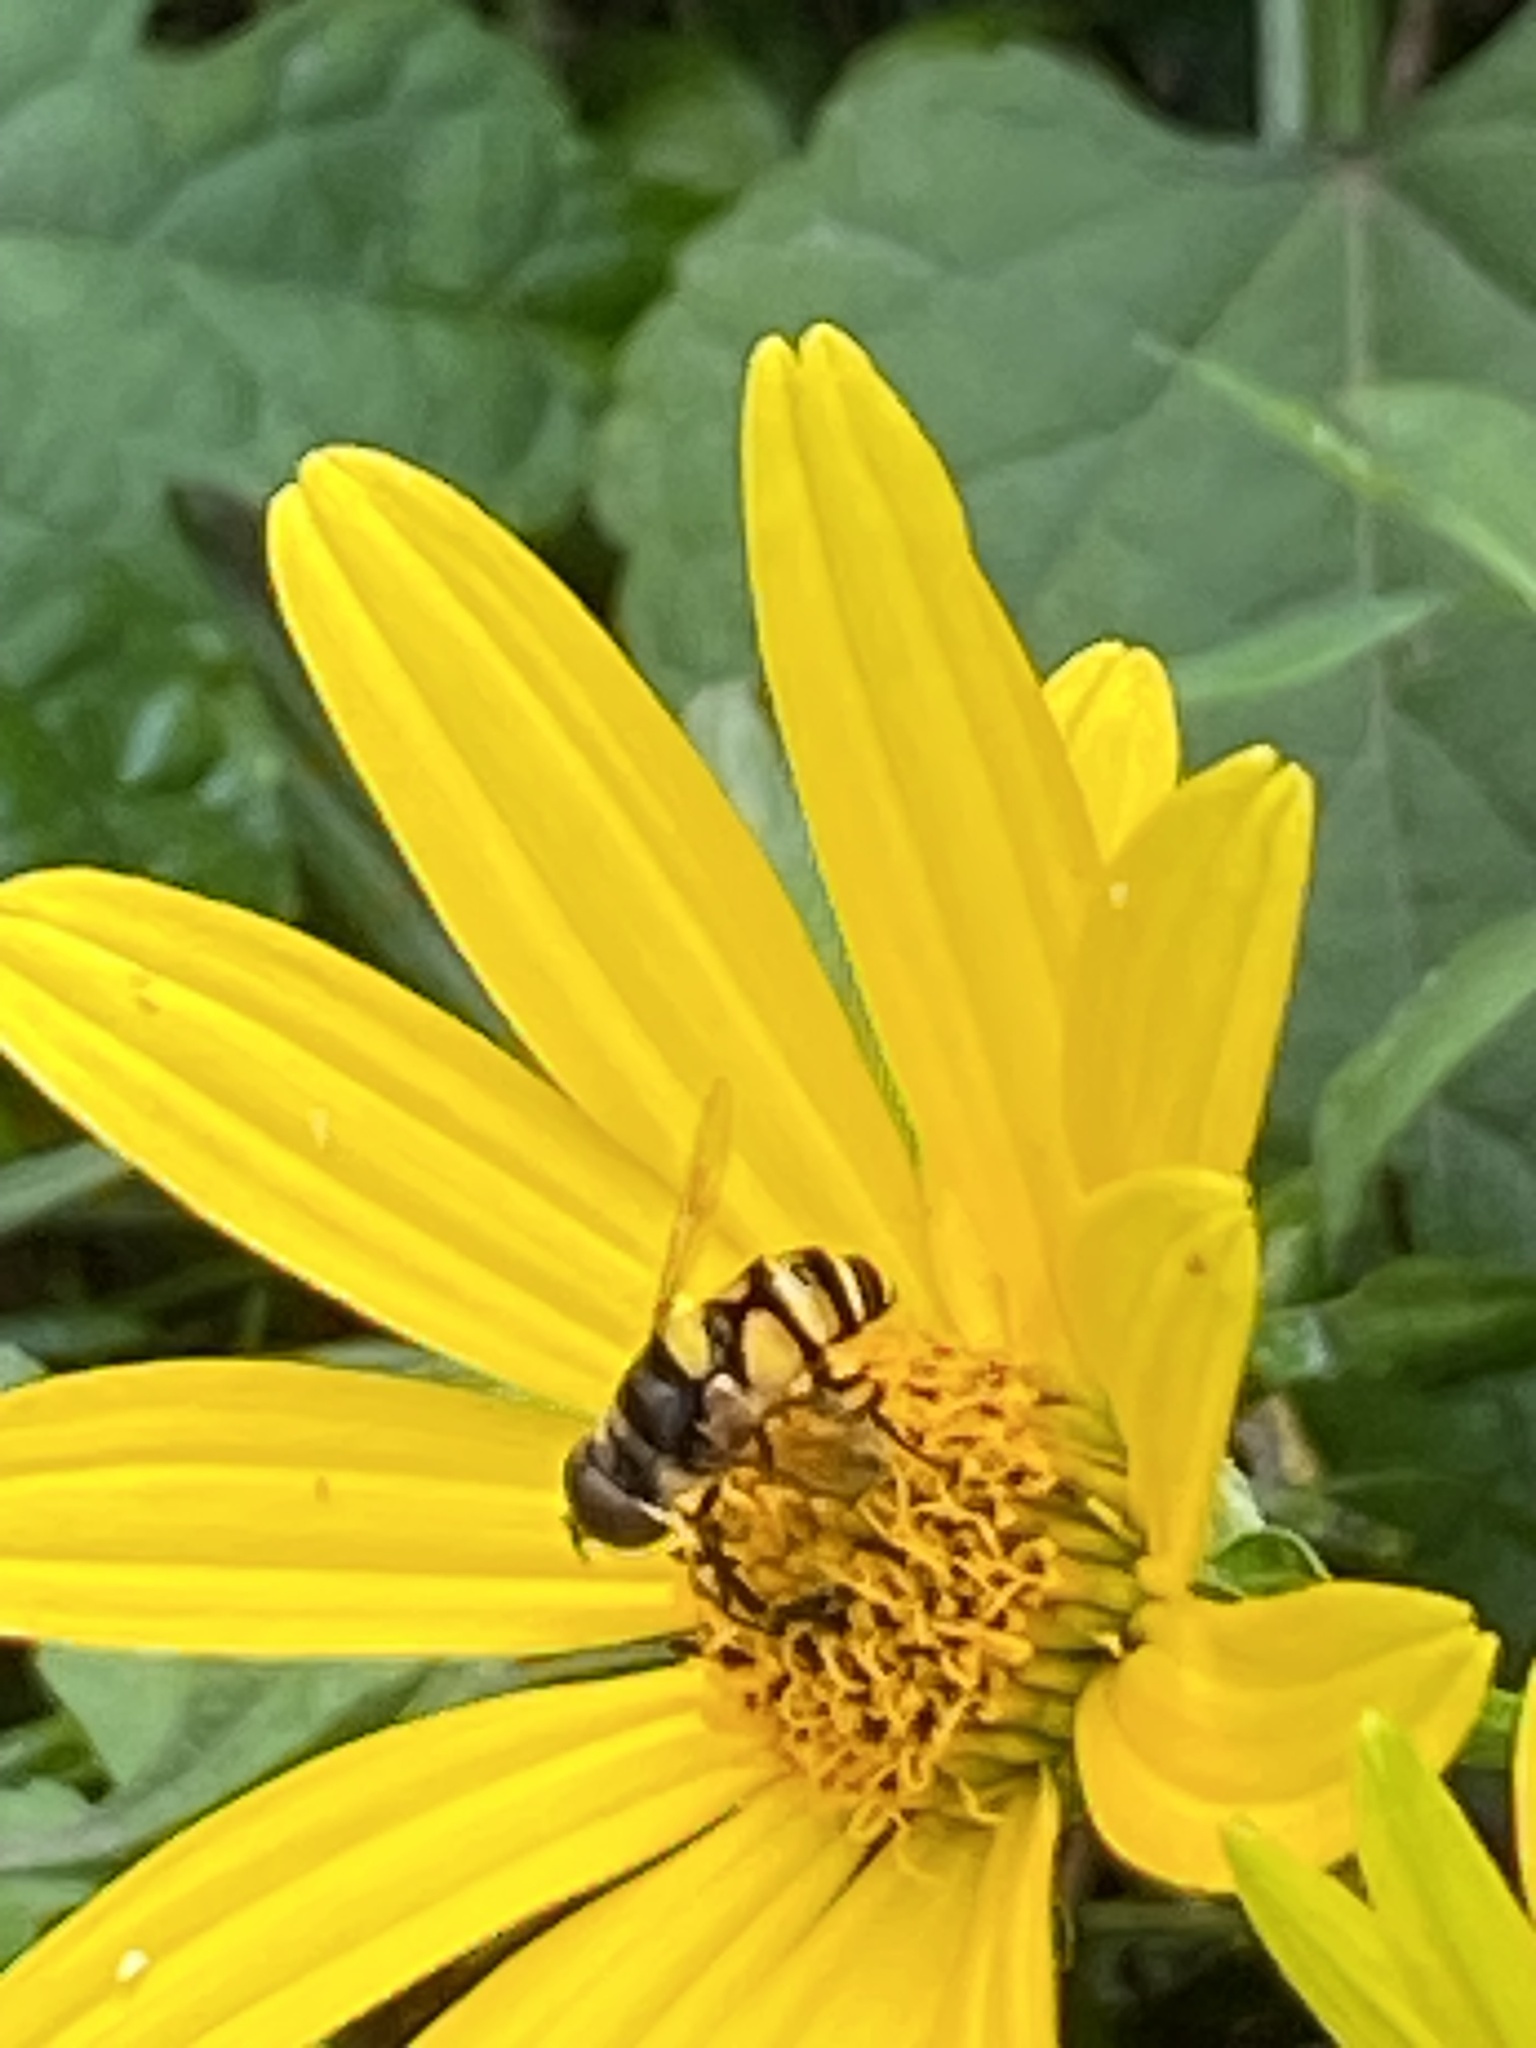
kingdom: Animalia
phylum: Arthropoda
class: Insecta
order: Diptera
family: Syrphidae
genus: Eristalis
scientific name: Eristalis transversa
